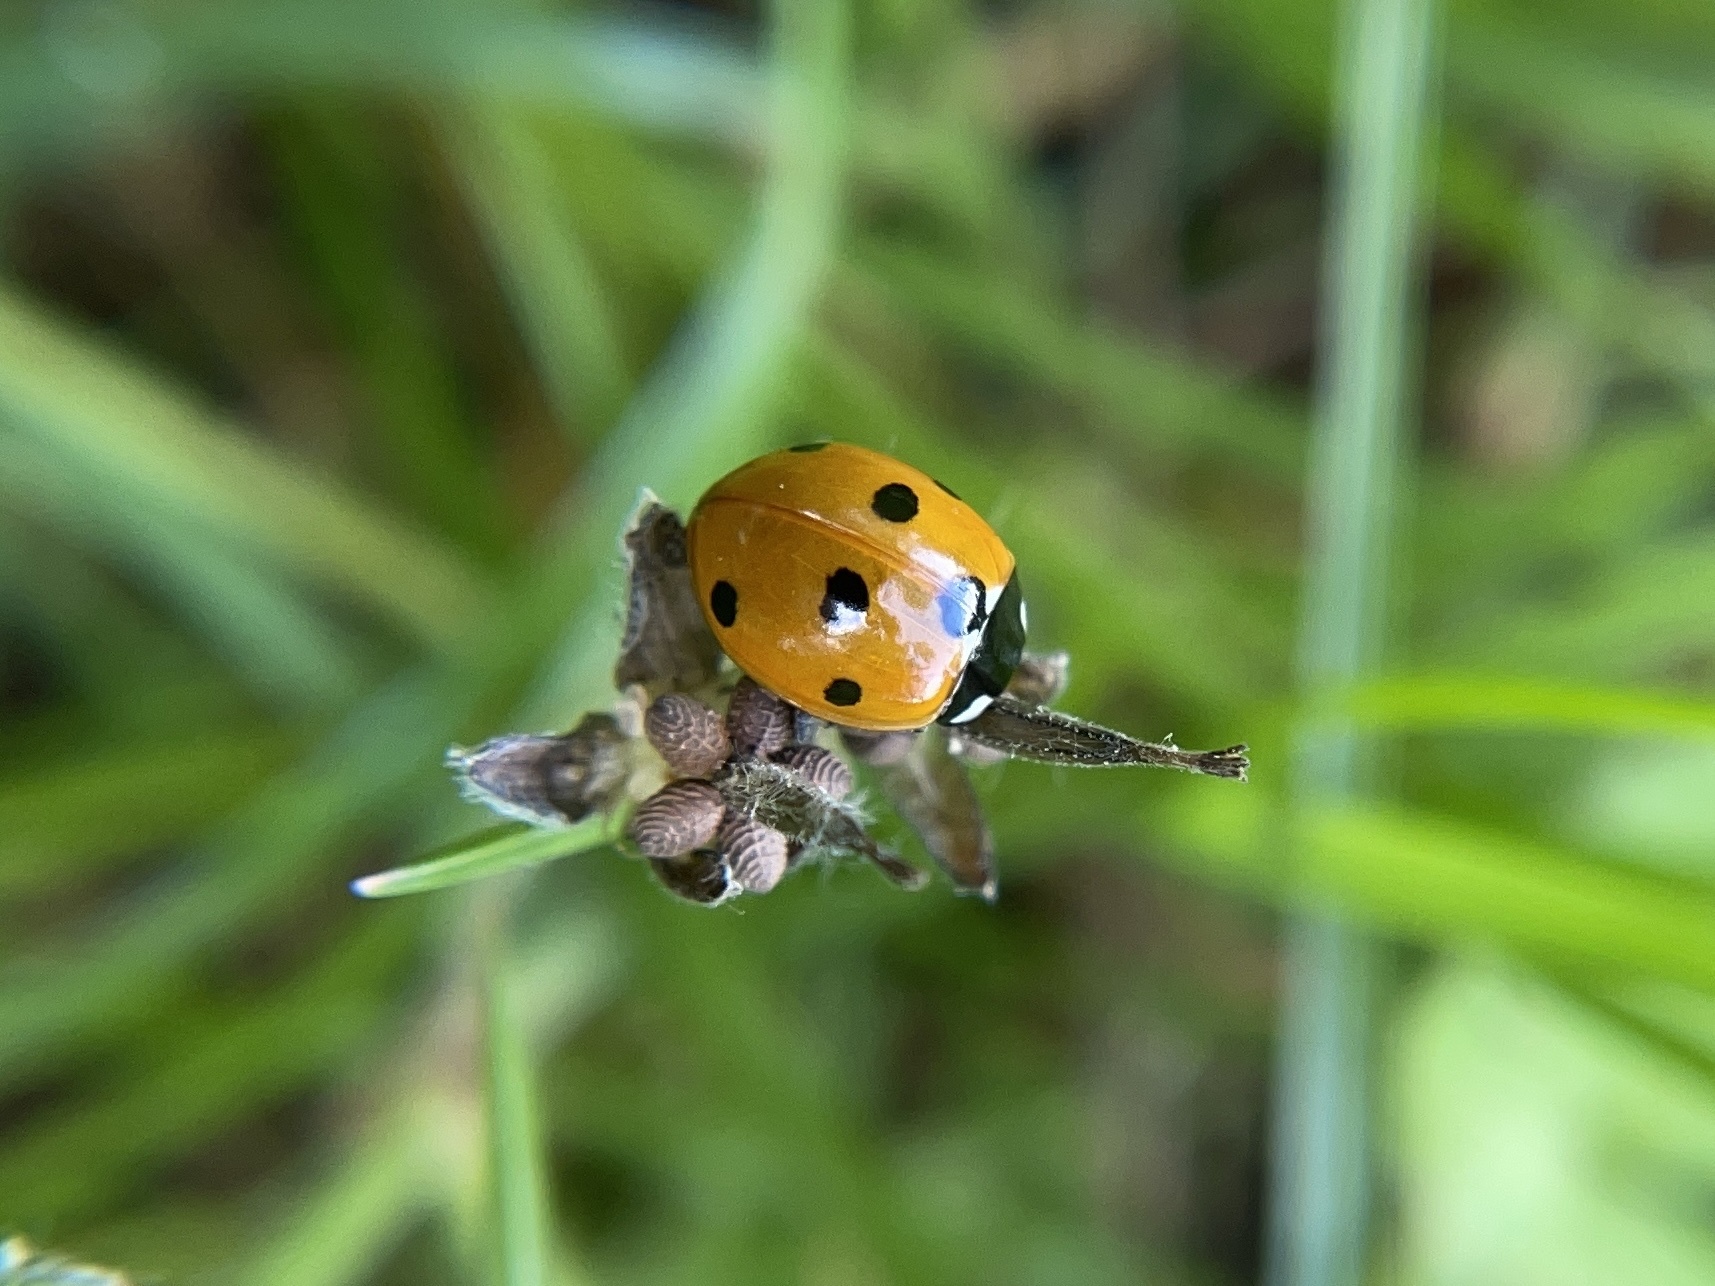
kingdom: Animalia
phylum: Arthropoda
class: Insecta
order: Coleoptera
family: Coccinellidae
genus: Coccinella
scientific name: Coccinella septempunctata
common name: Sevenspotted lady beetle
